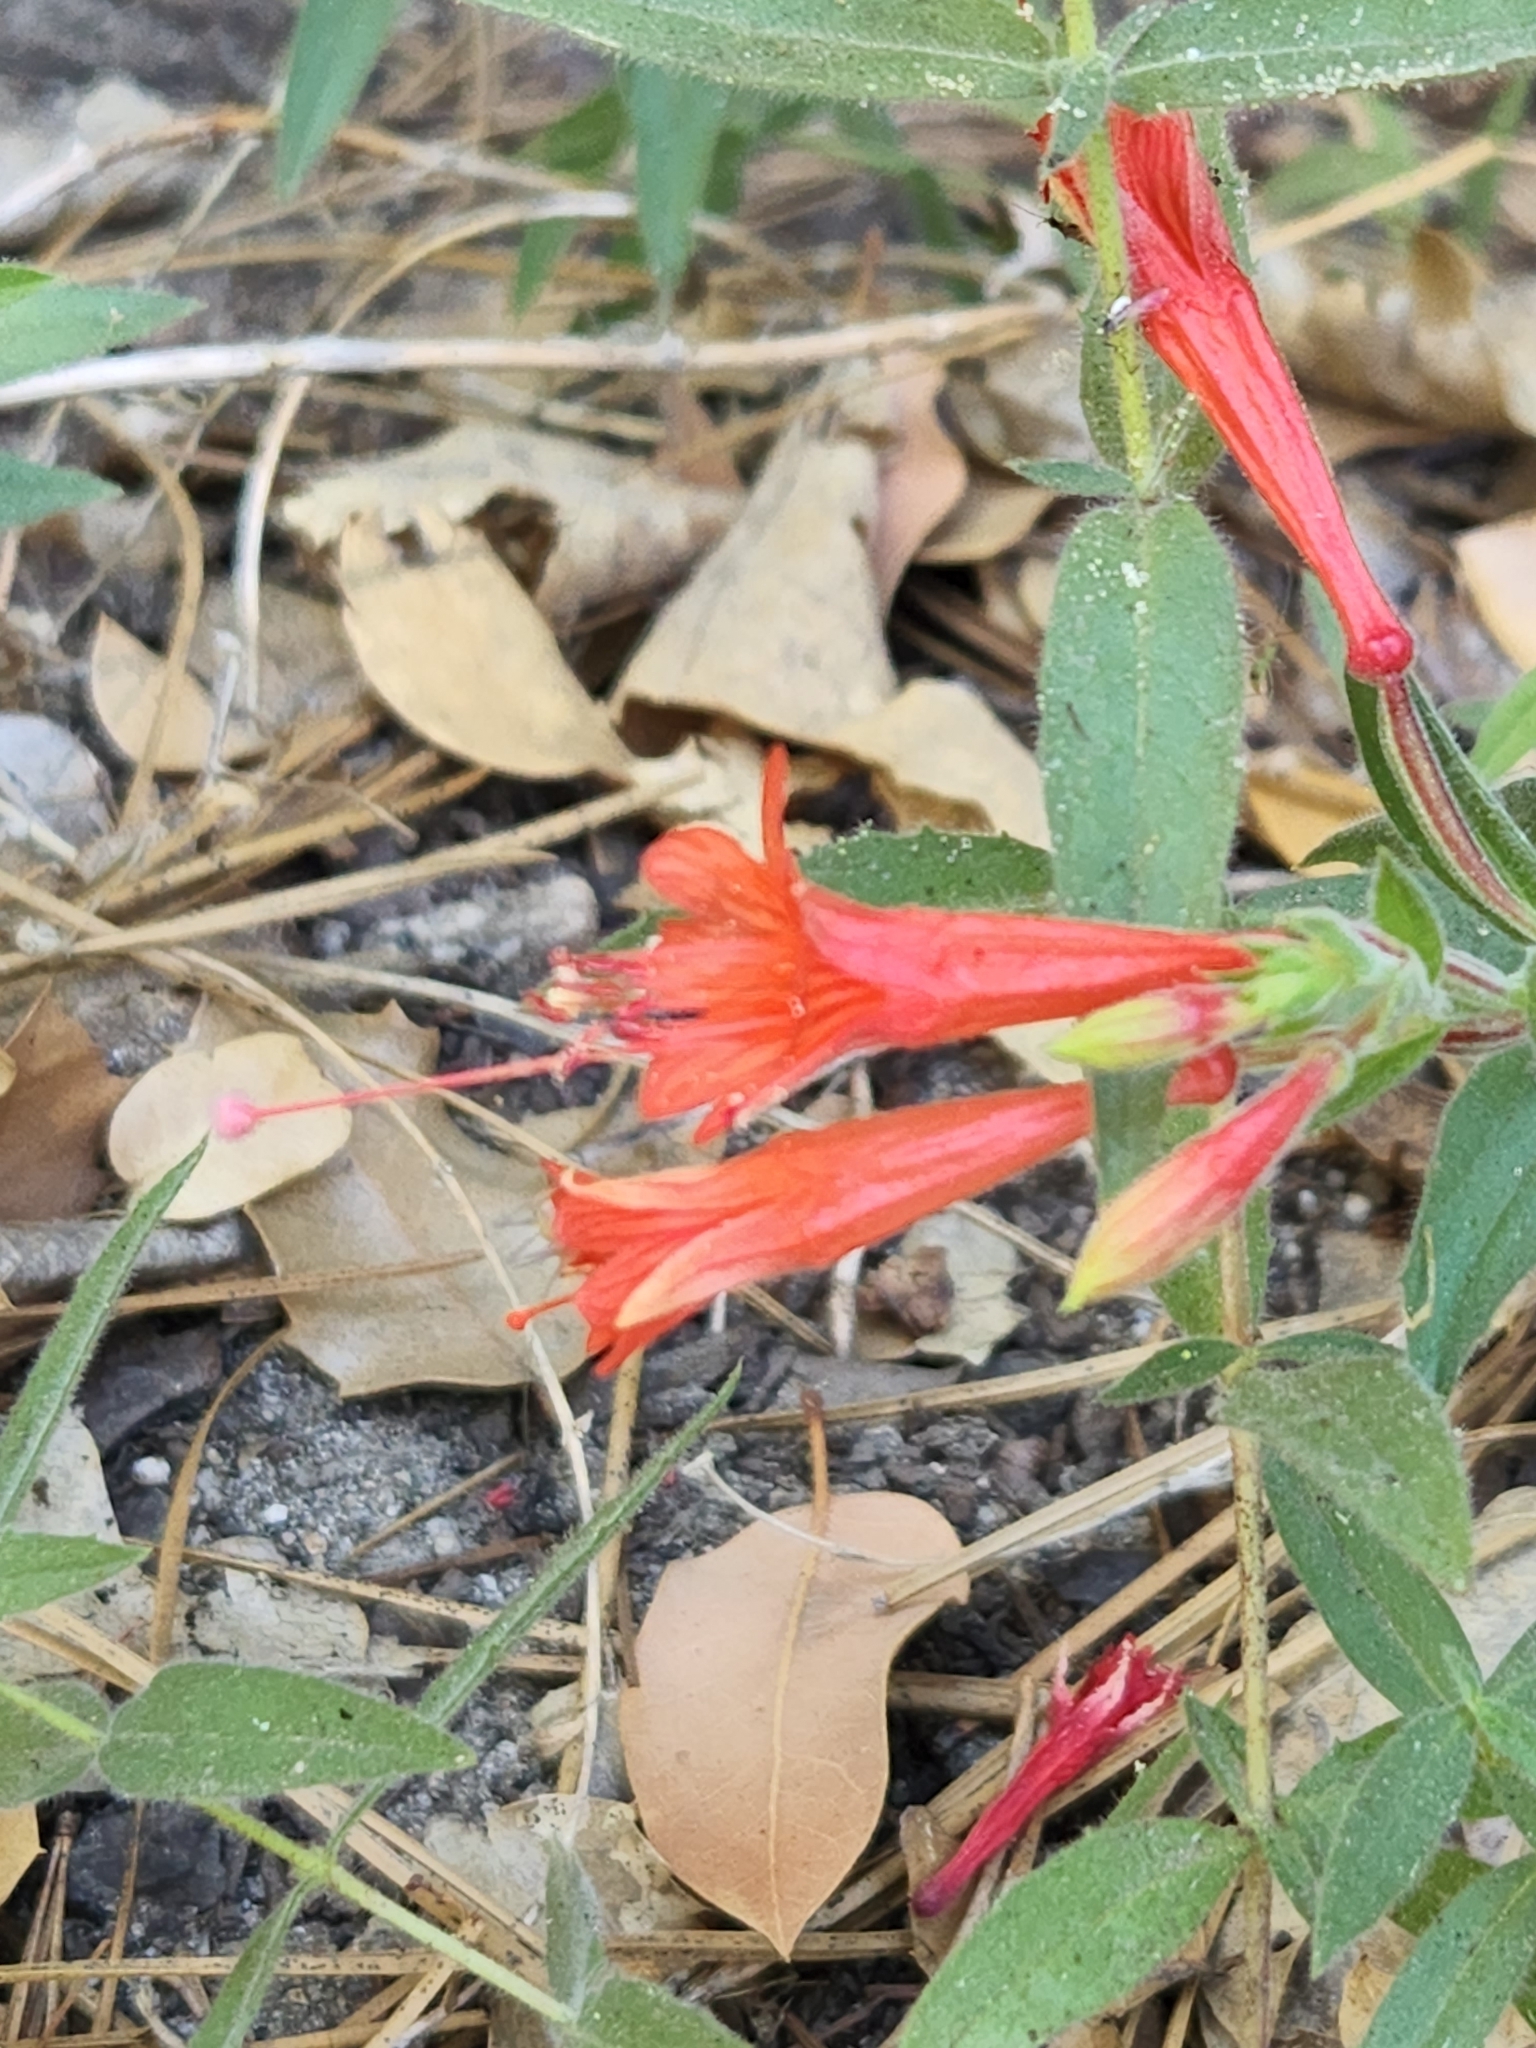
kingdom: Plantae
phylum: Tracheophyta
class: Magnoliopsida
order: Myrtales
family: Onagraceae
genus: Epilobium
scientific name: Epilobium canum
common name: California-fuchsia
